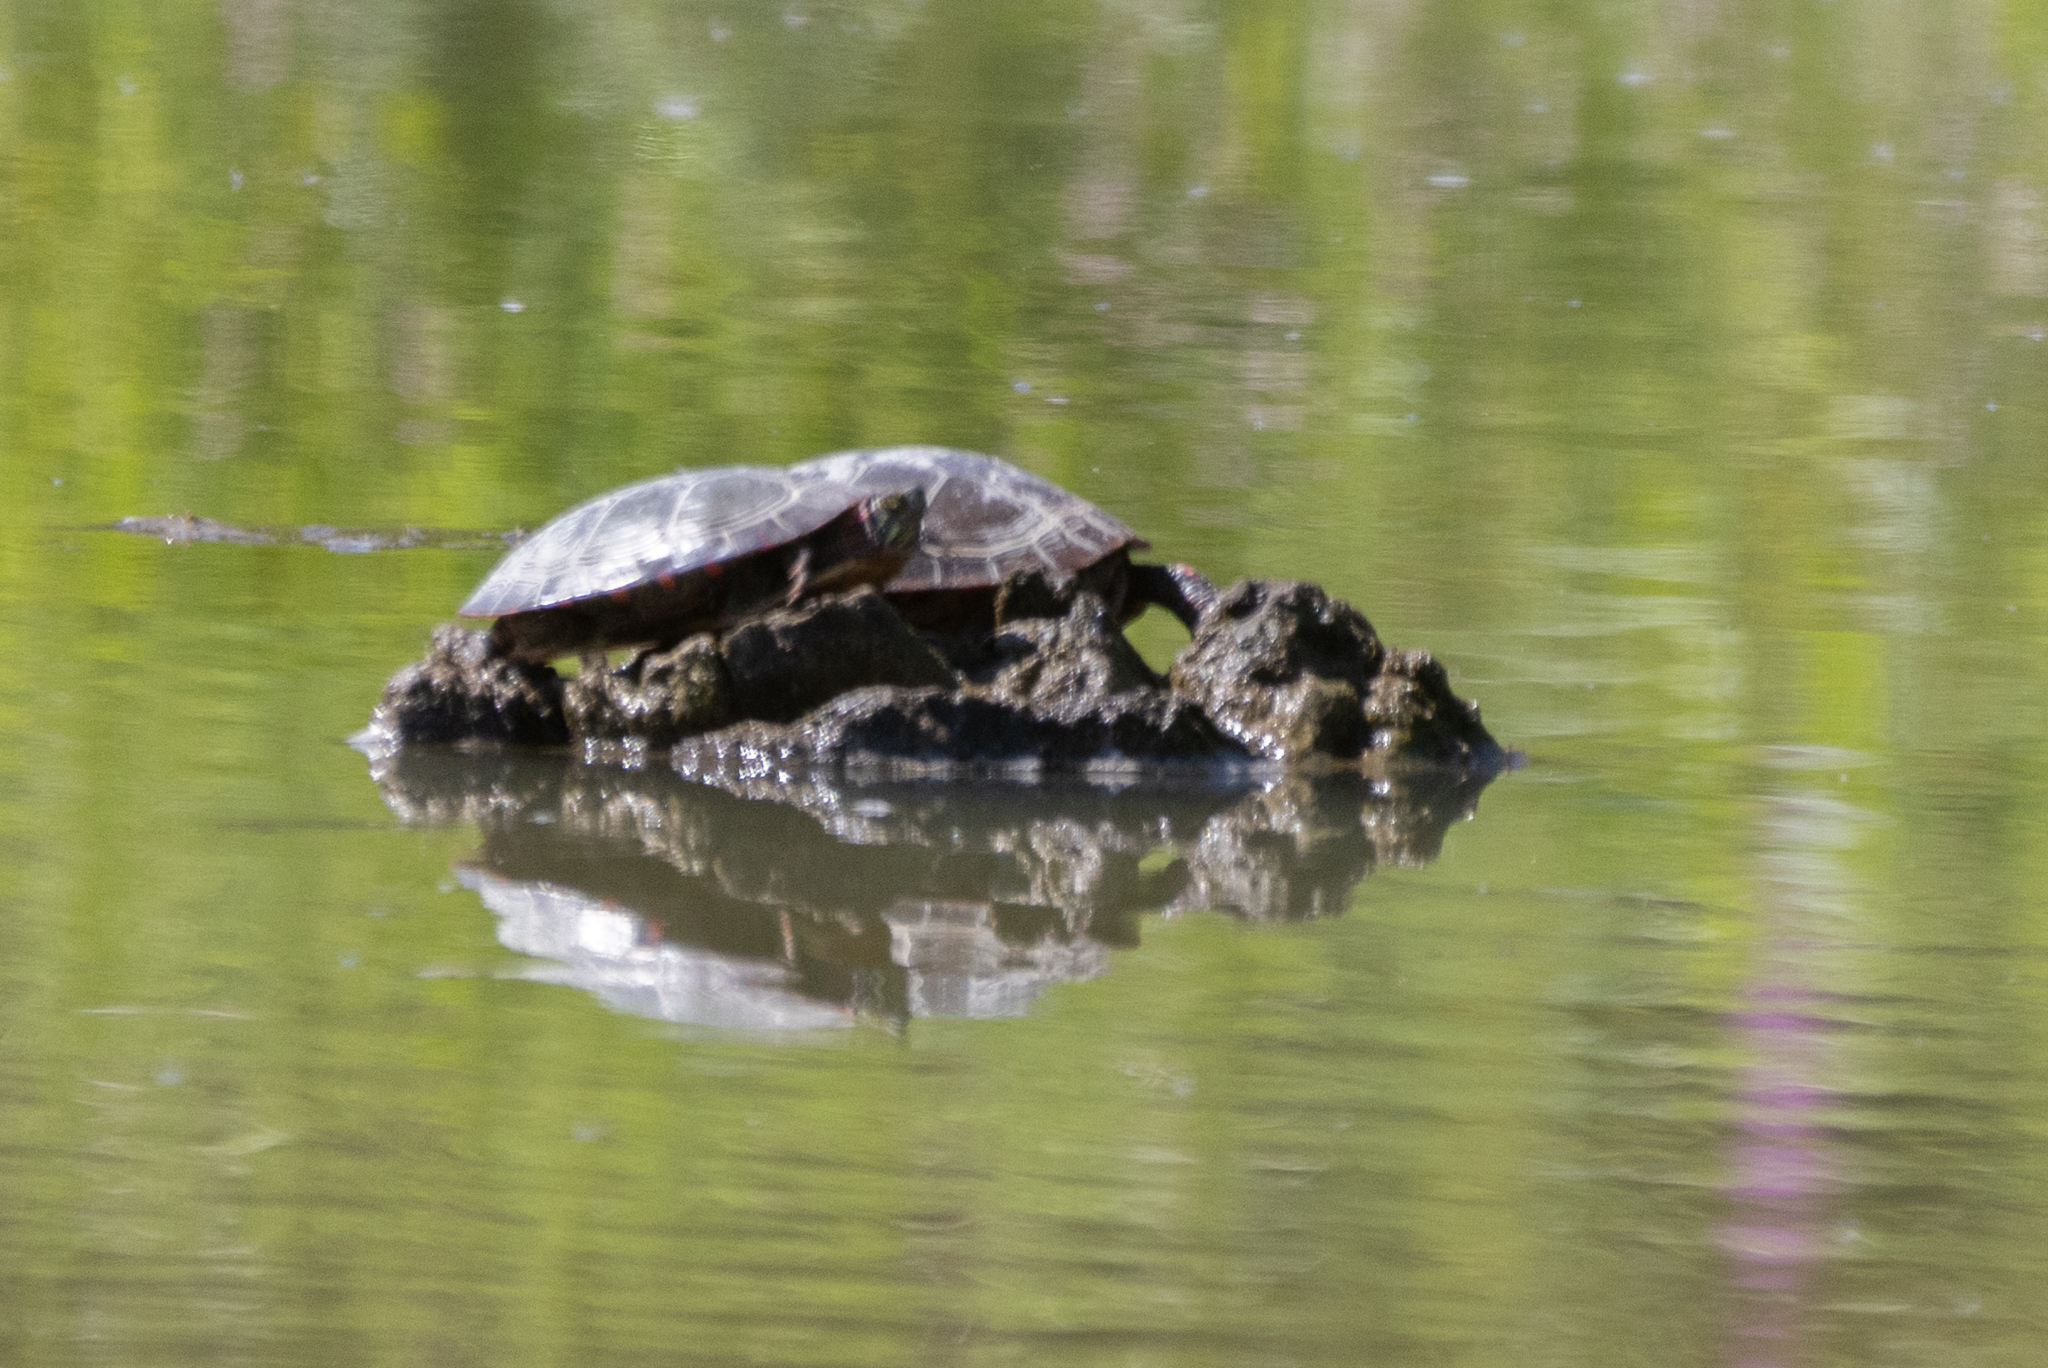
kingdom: Animalia
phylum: Chordata
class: Testudines
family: Emydidae
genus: Chrysemys
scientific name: Chrysemys picta
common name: Painted turtle
